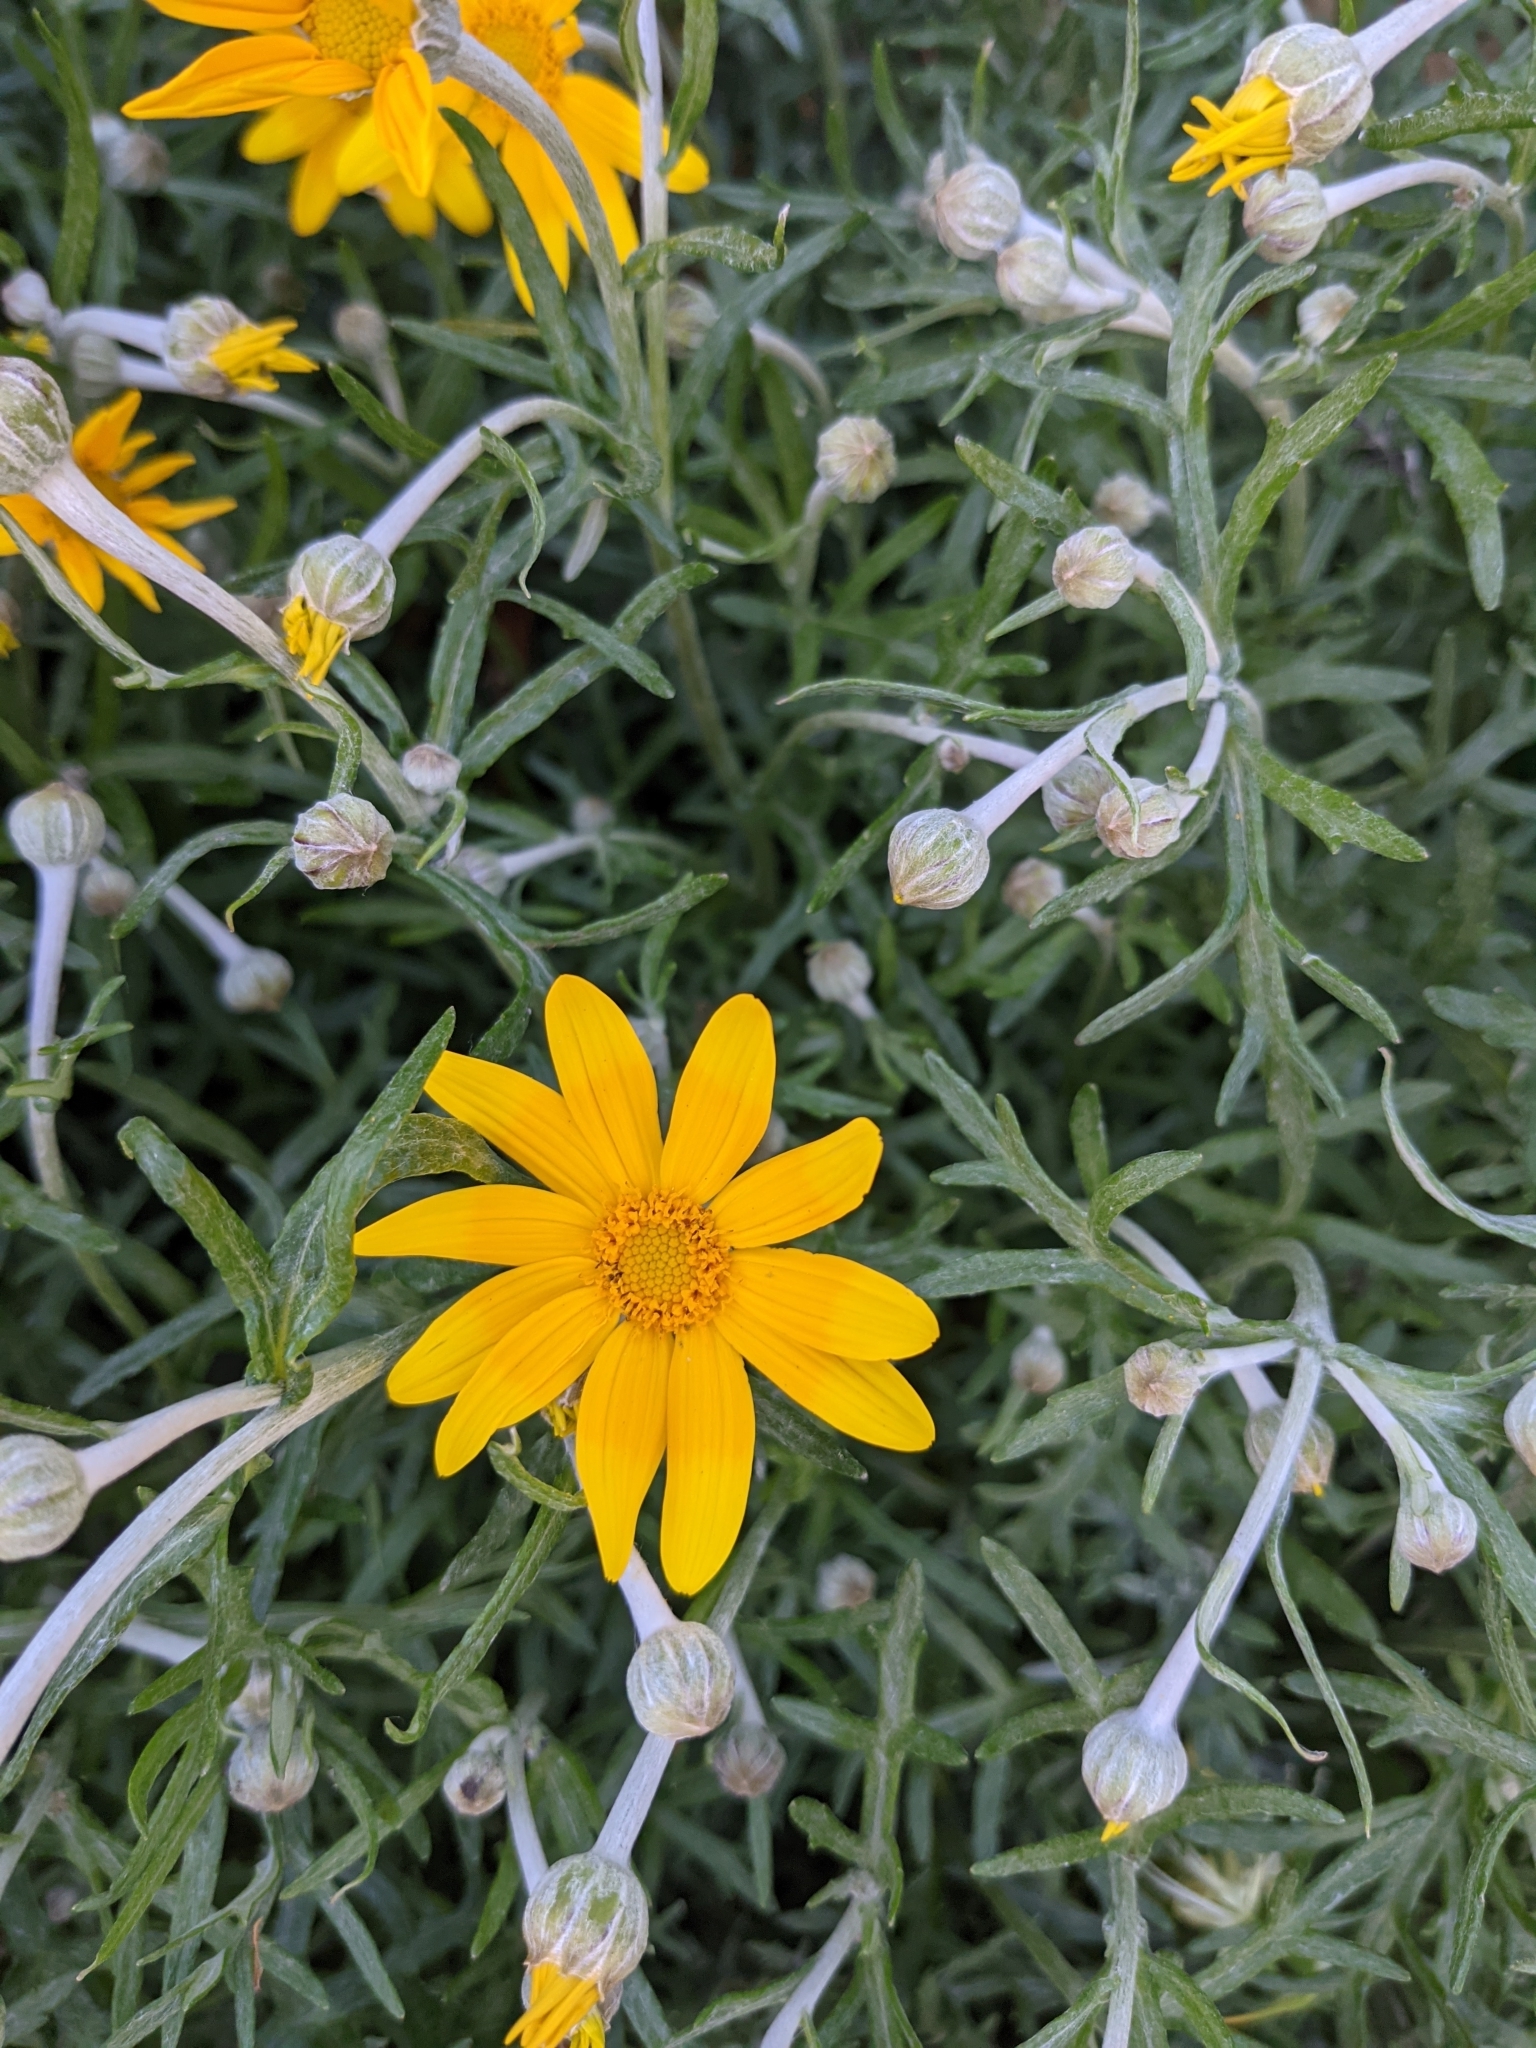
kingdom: Plantae
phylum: Tracheophyta
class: Magnoliopsida
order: Asterales
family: Asteraceae
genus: Eriophyllum
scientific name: Eriophyllum lanatum
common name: Common woolly-sunflower
